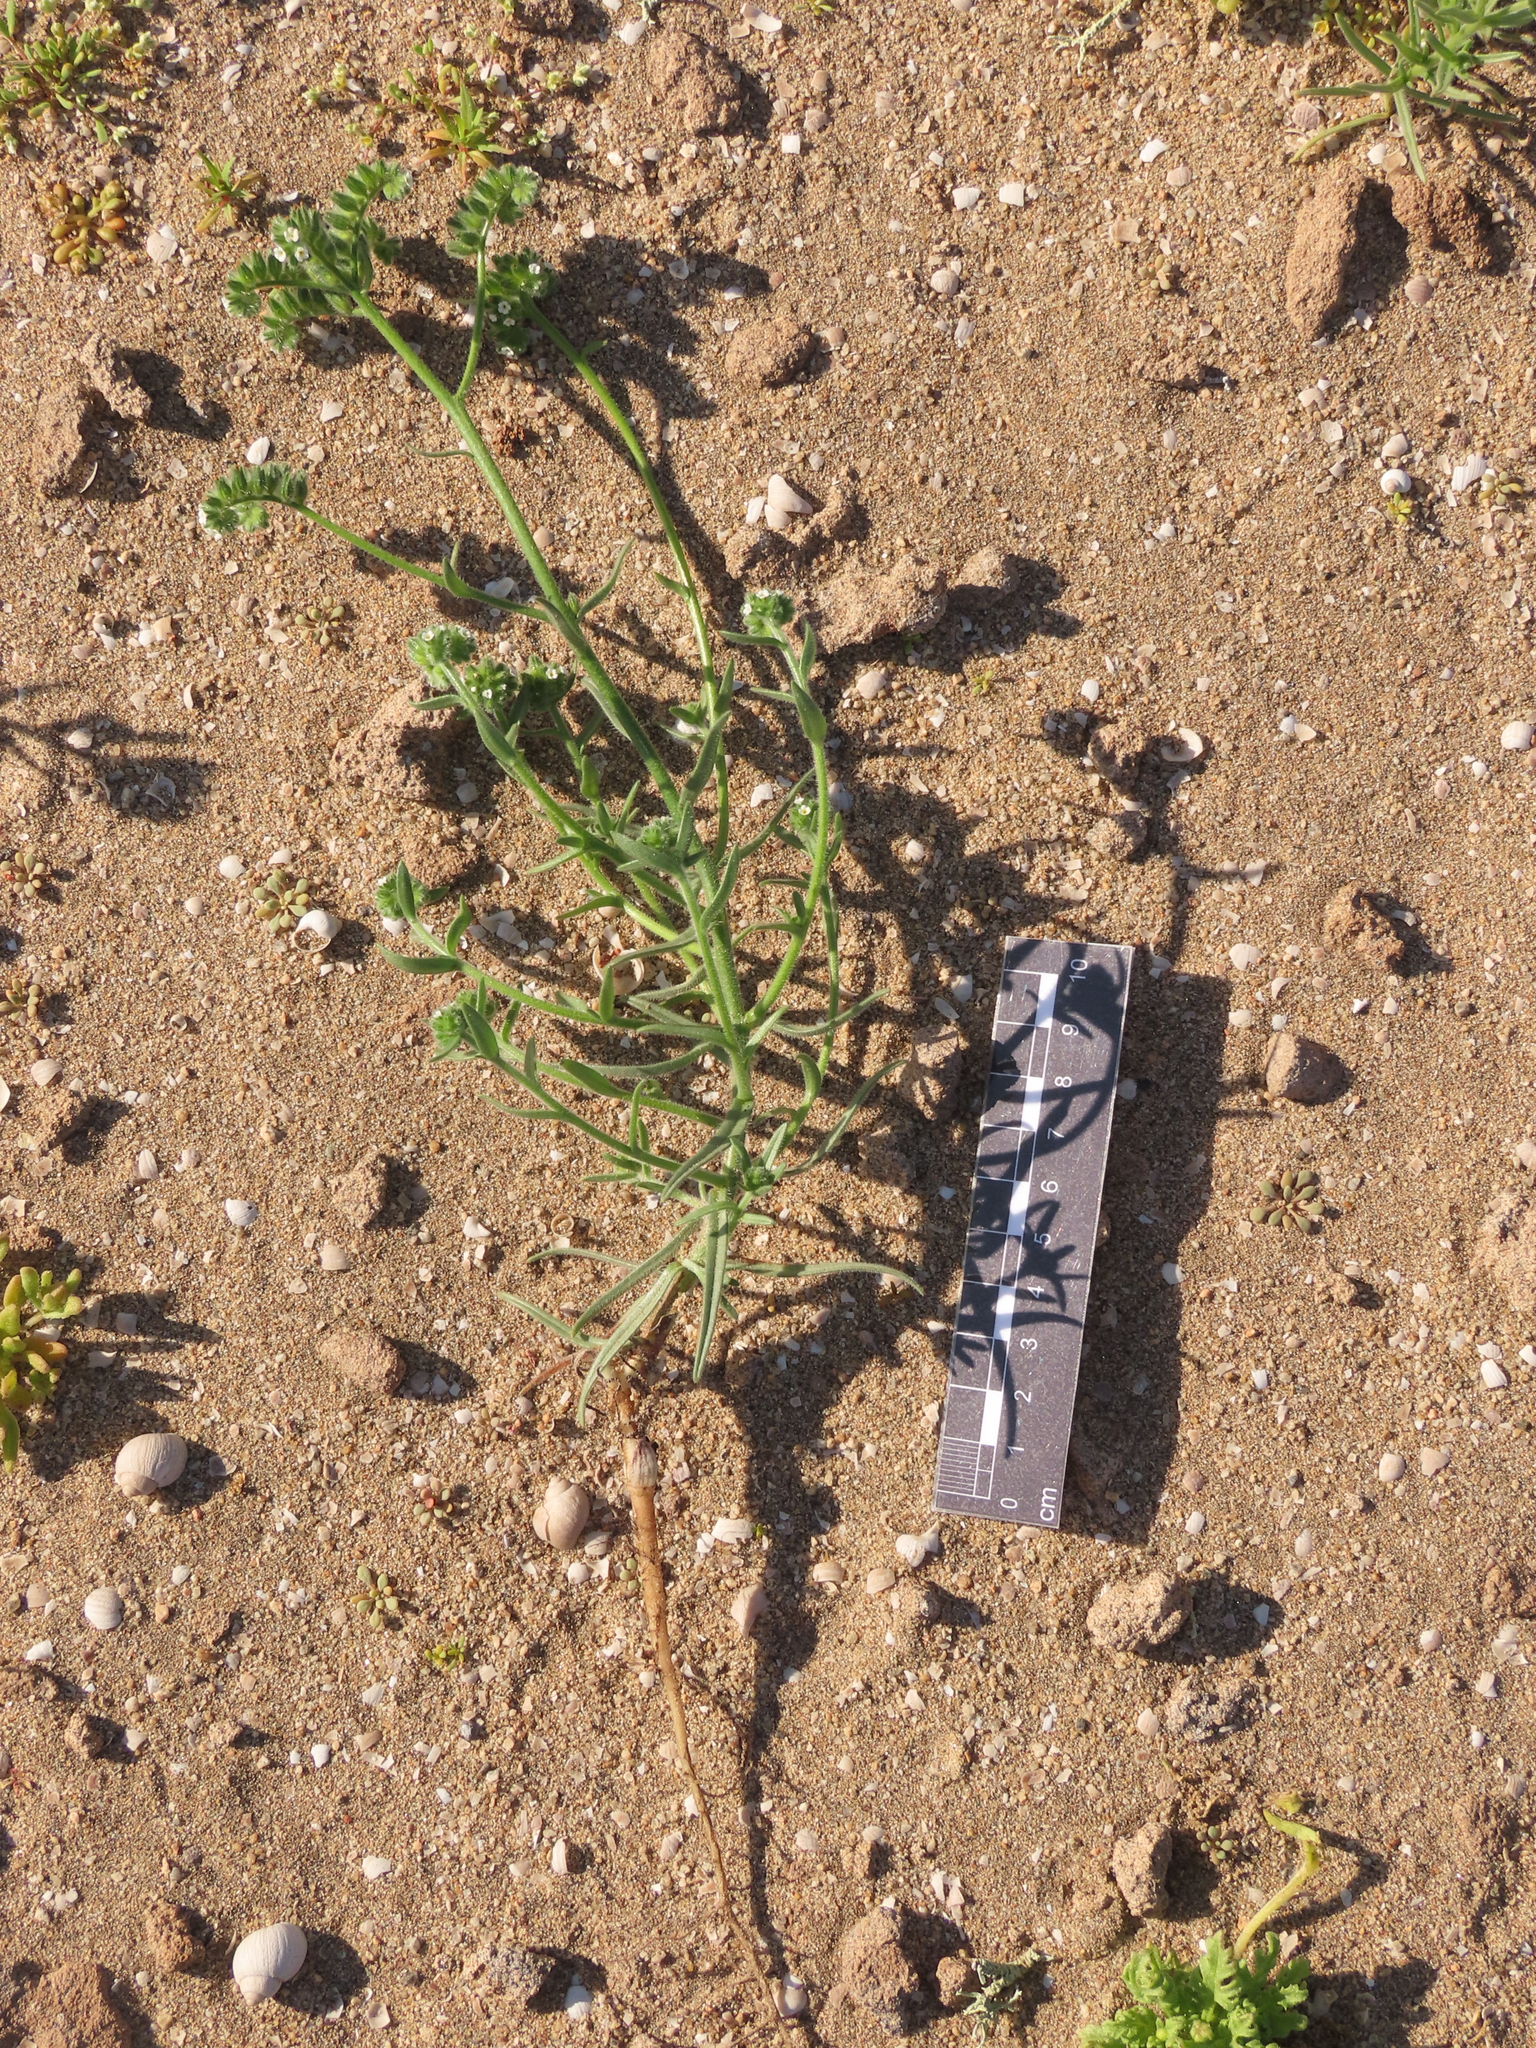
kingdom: Plantae
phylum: Tracheophyta
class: Magnoliopsida
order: Boraginales
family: Boraginaceae
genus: Cryptantha
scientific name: Cryptantha kingii
